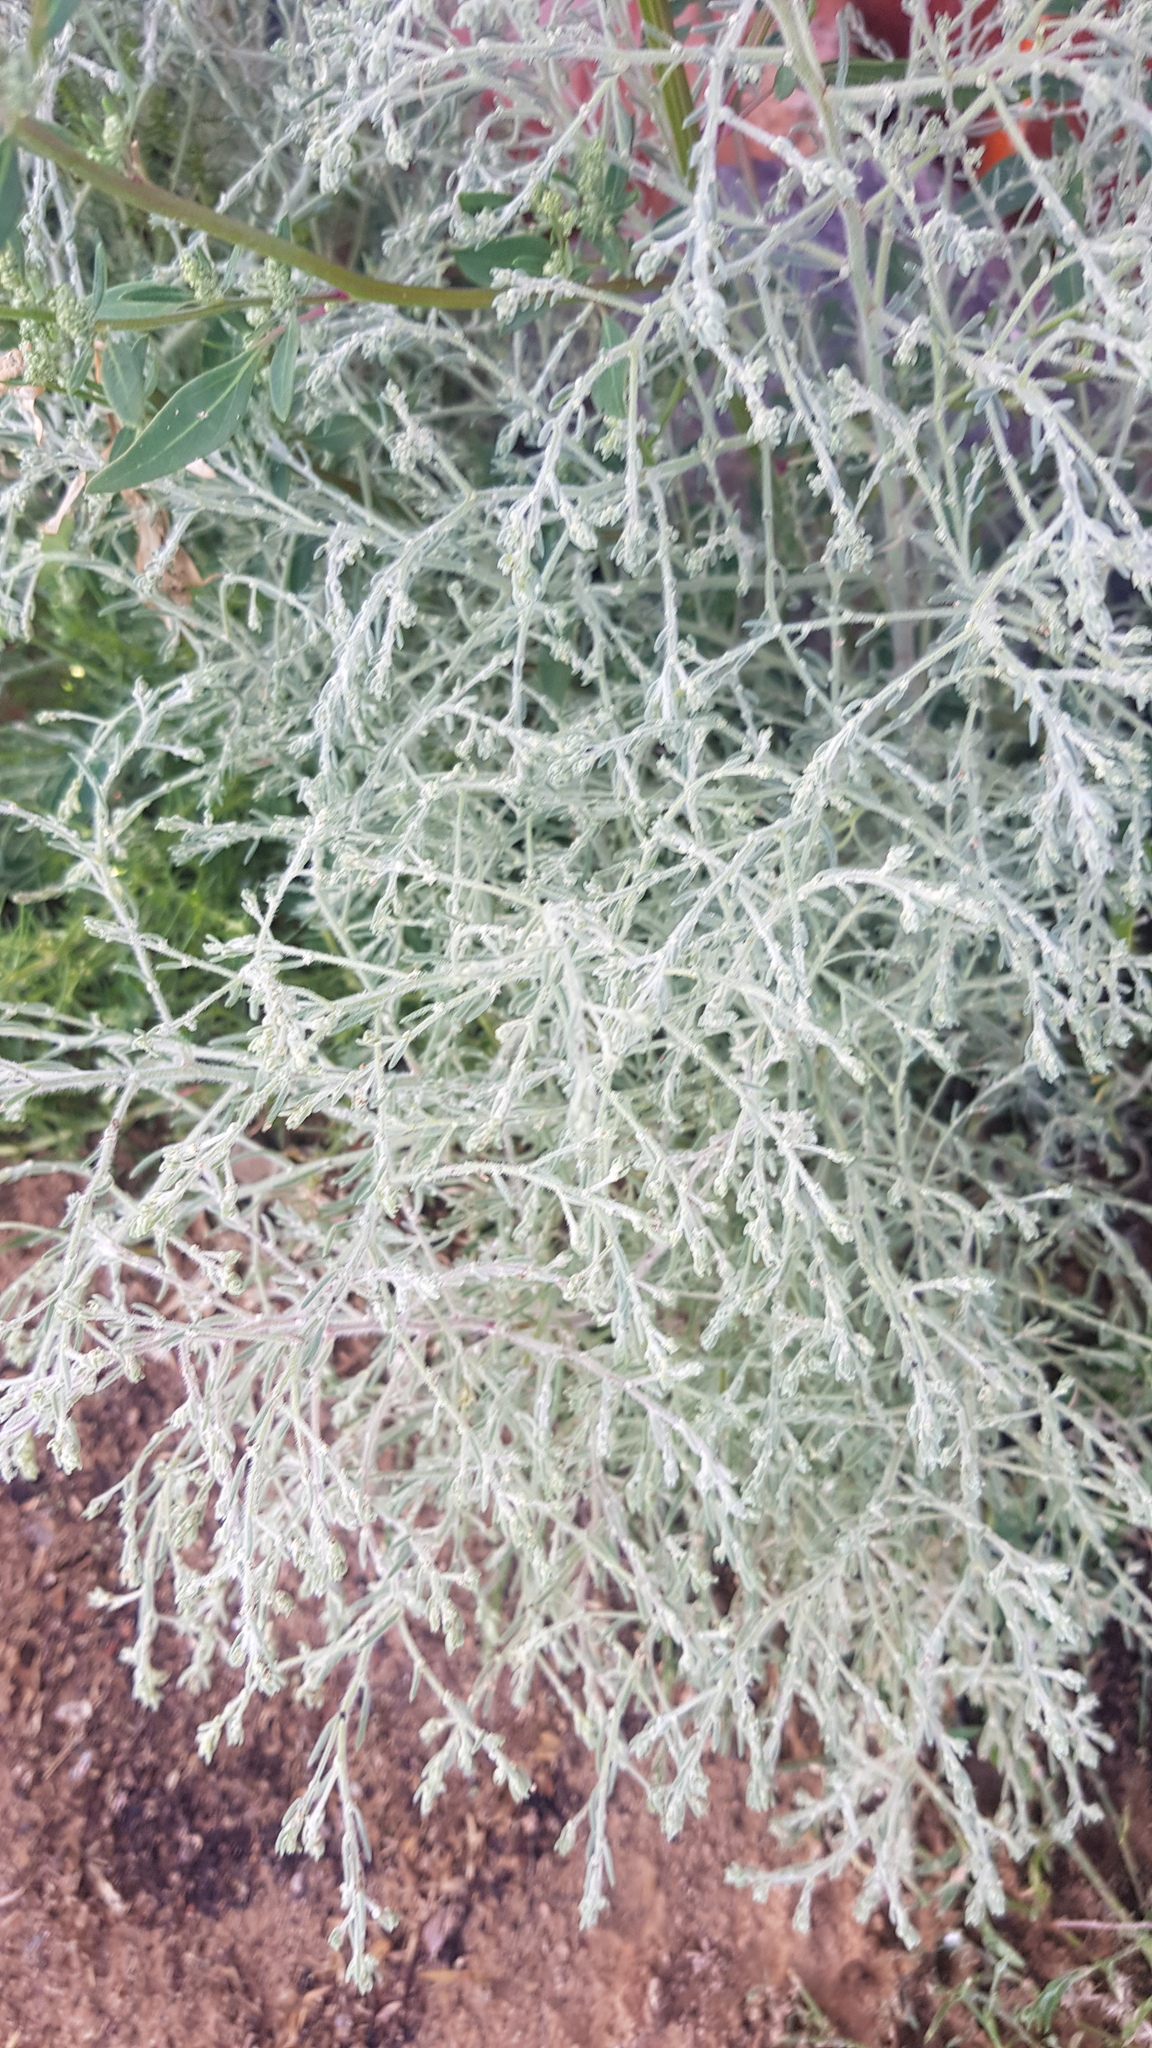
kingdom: Plantae
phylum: Tracheophyta
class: Magnoliopsida
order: Caryophyllales
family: Amaranthaceae
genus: Grubovia
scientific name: Grubovia dasyphylla
